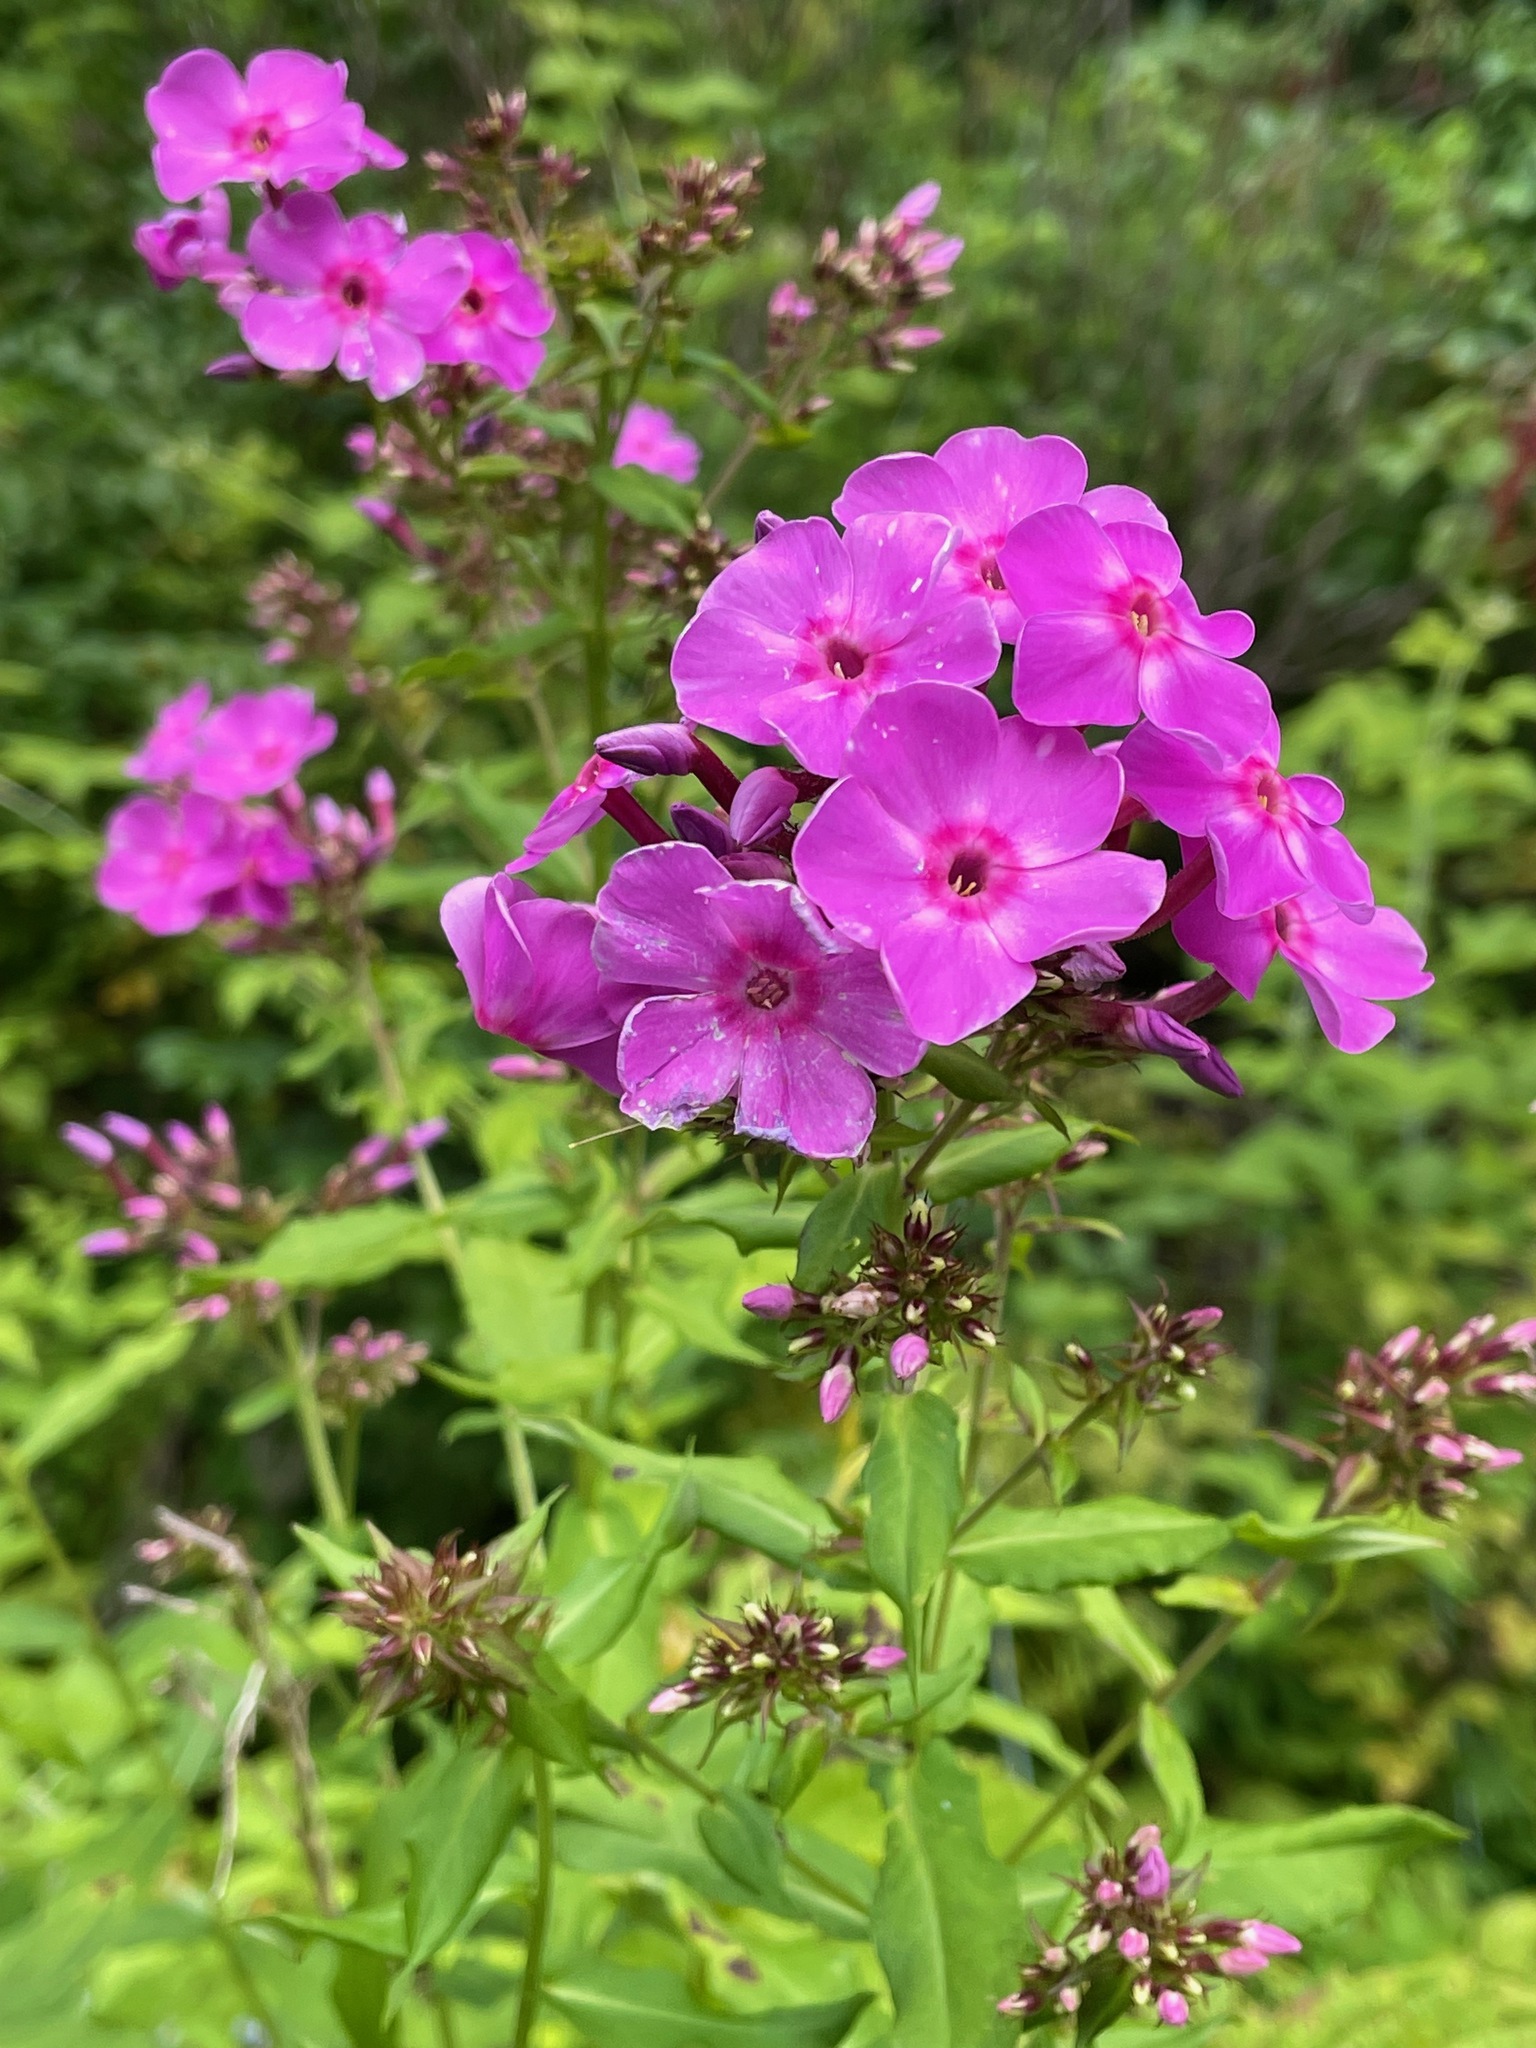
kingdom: Plantae
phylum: Tracheophyta
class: Magnoliopsida
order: Ericales
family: Polemoniaceae
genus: Phlox
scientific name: Phlox paniculata
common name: Fall phlox
